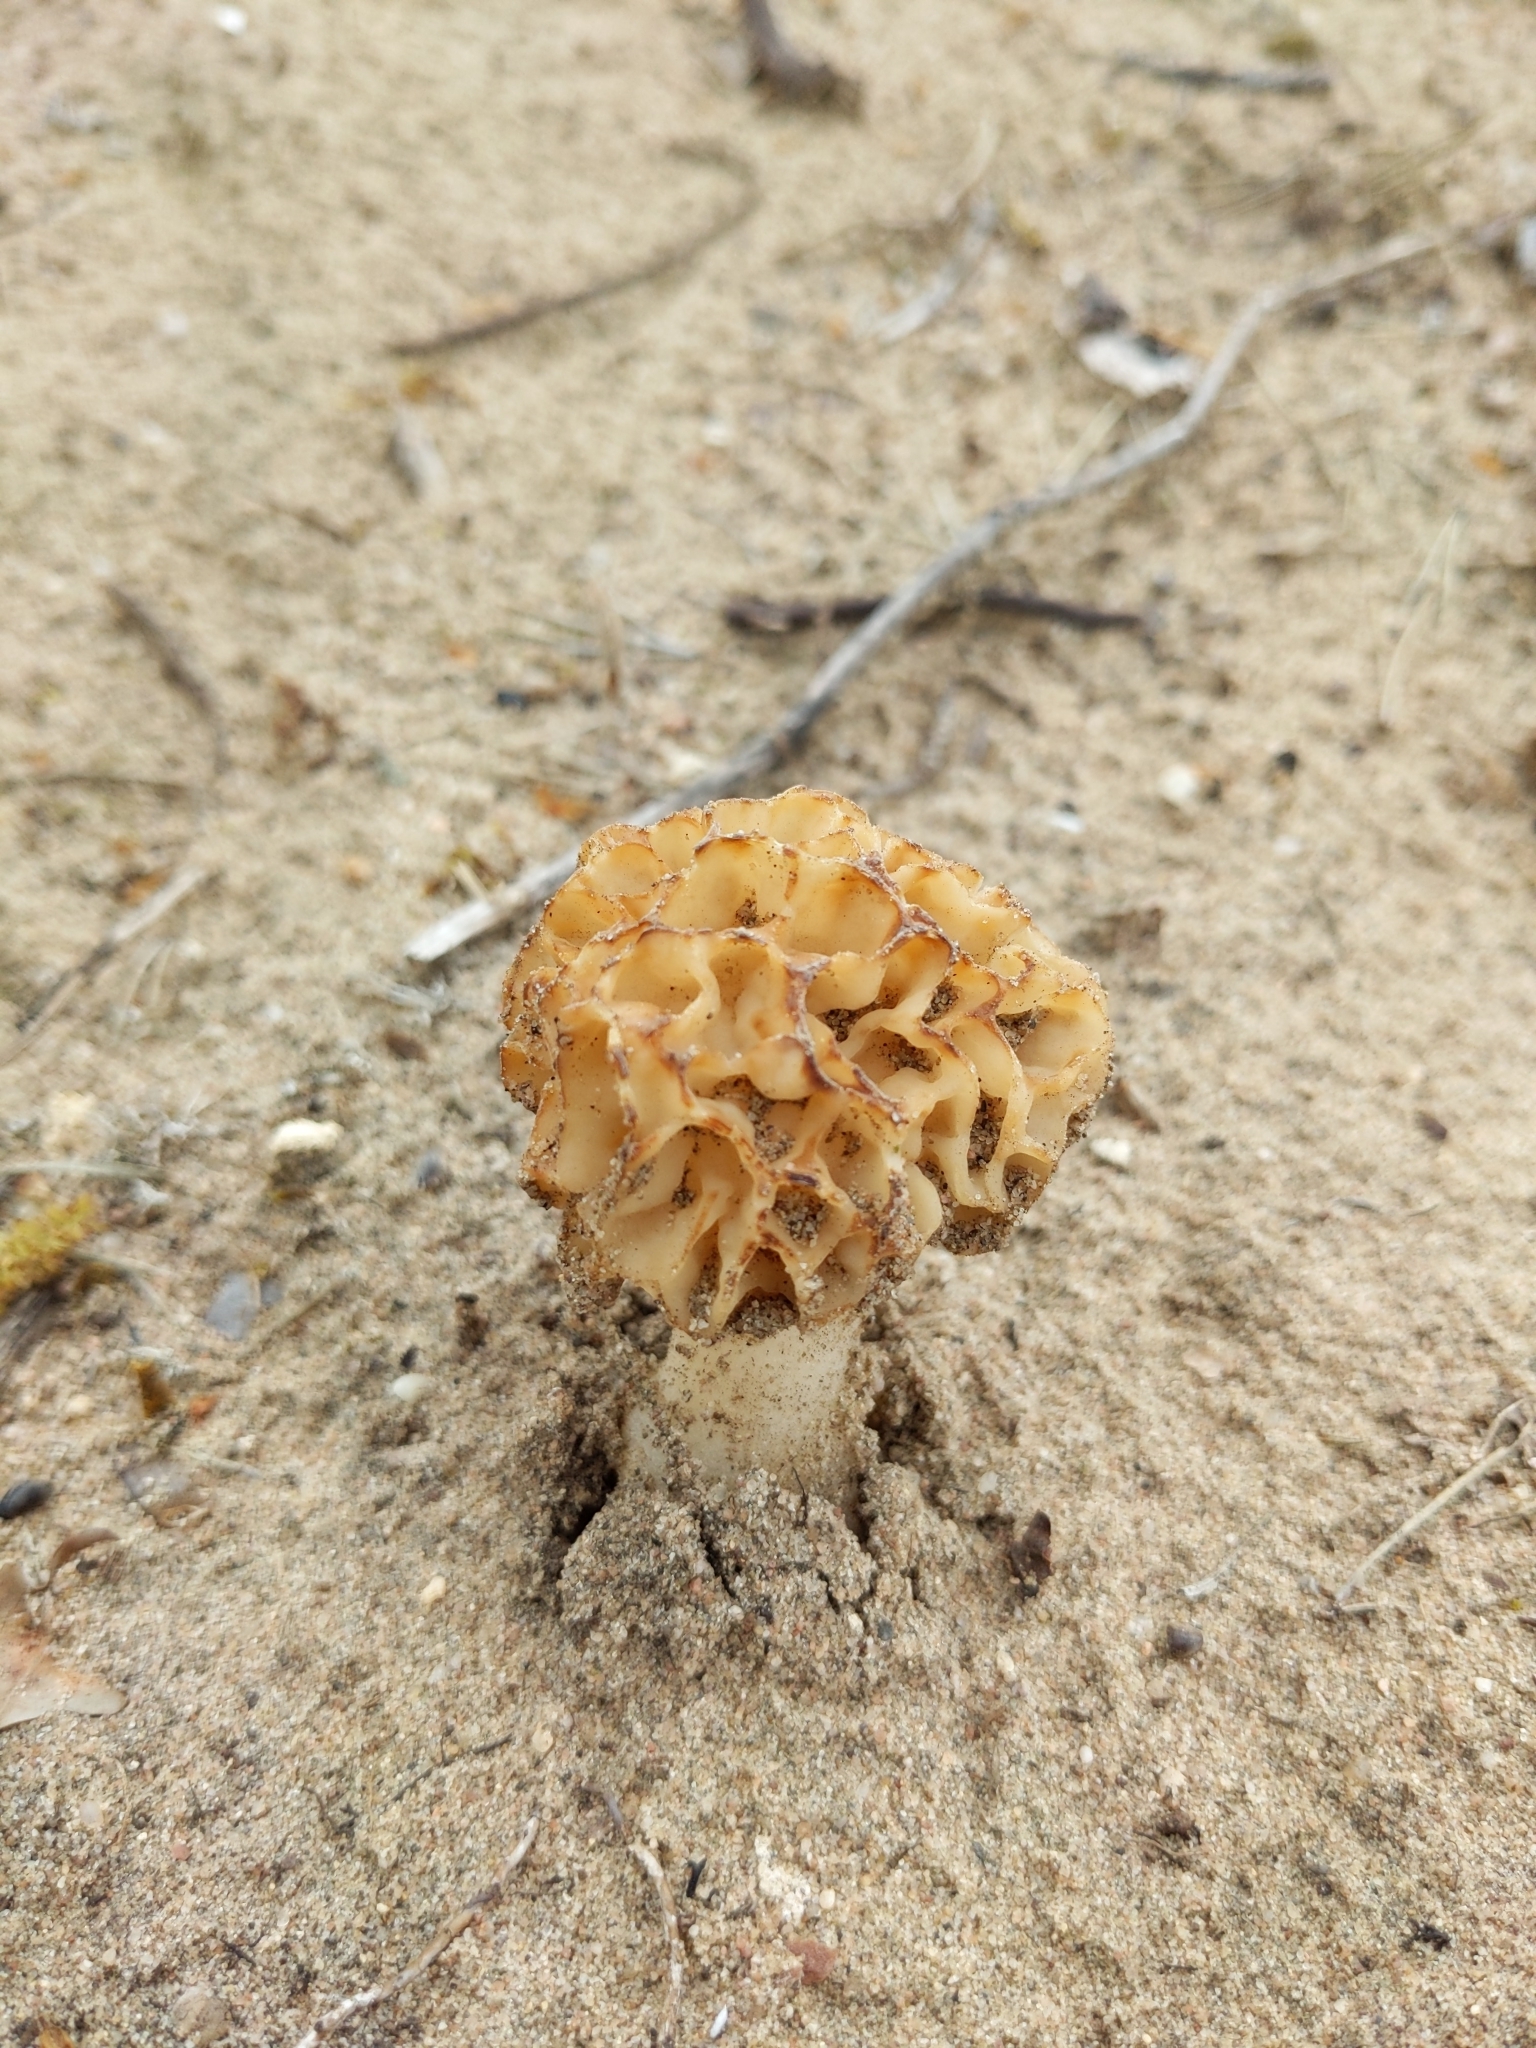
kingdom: Fungi
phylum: Ascomycota
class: Pezizomycetes
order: Pezizales
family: Morchellaceae
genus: Morchella
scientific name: Morchella esculenta
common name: Morel
